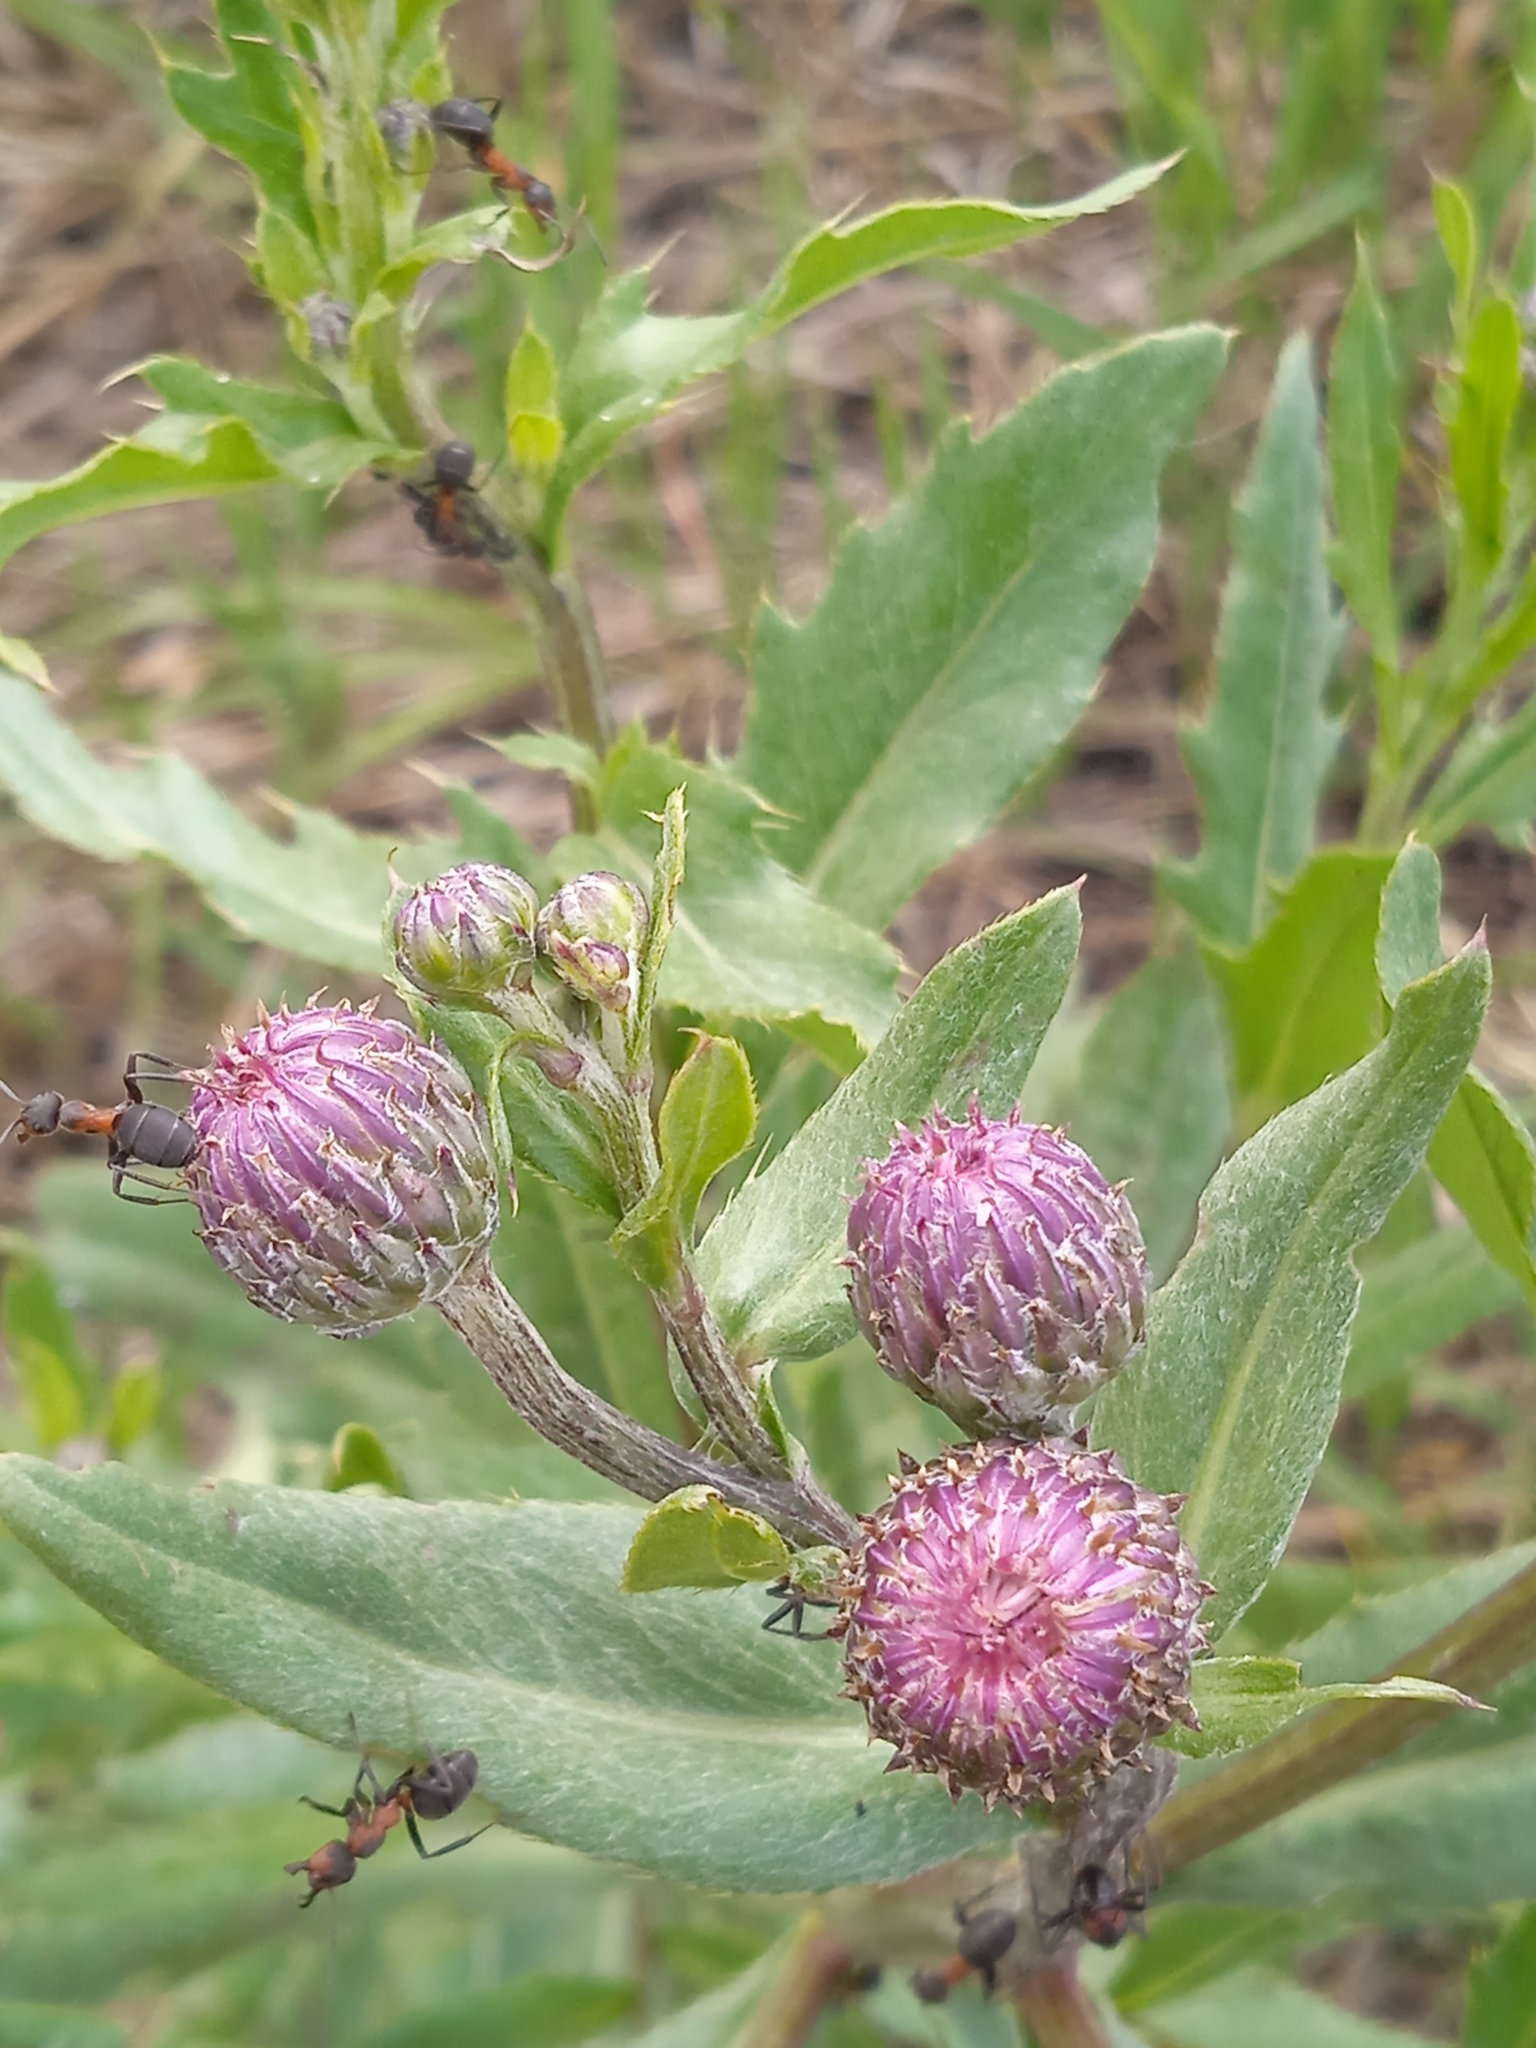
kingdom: Plantae
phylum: Tracheophyta
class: Magnoliopsida
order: Asterales
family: Asteraceae
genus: Cirsium
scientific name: Cirsium arvense
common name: Creeping thistle
